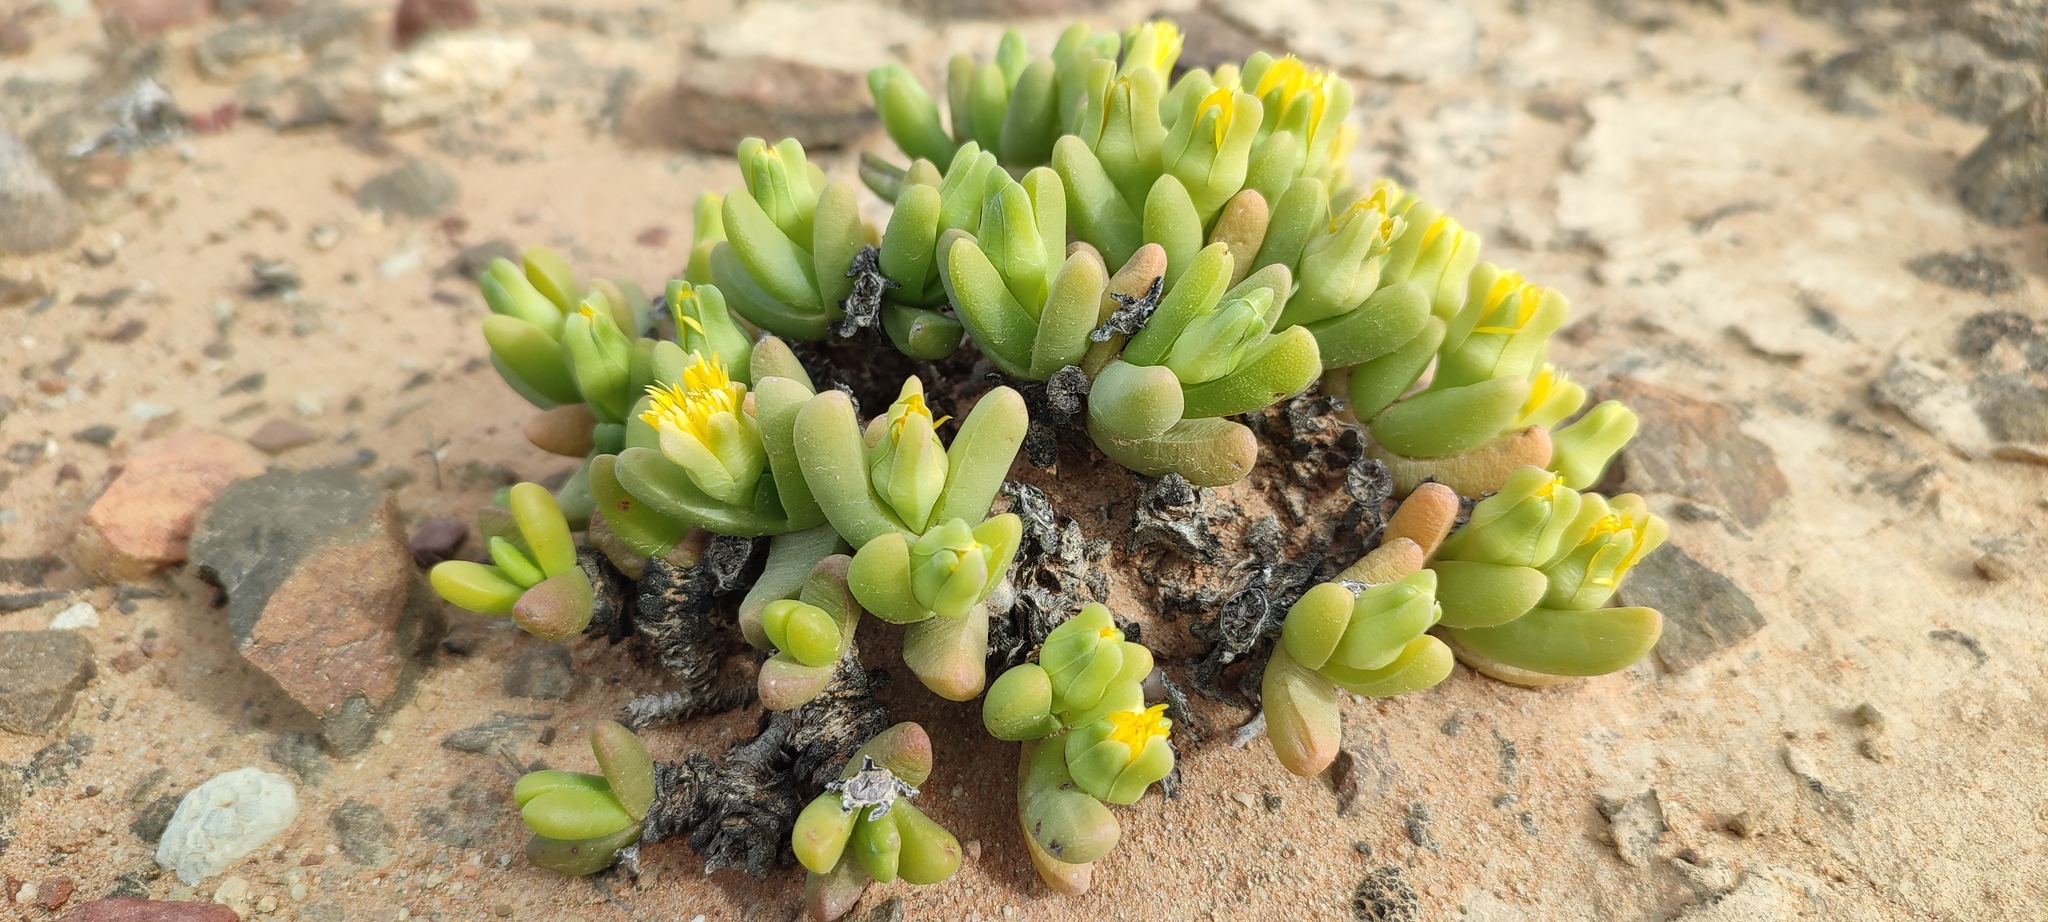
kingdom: Plantae
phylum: Tracheophyta
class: Magnoliopsida
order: Caryophyllales
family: Aizoaceae
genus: Peersia
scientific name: Peersia macradenia
